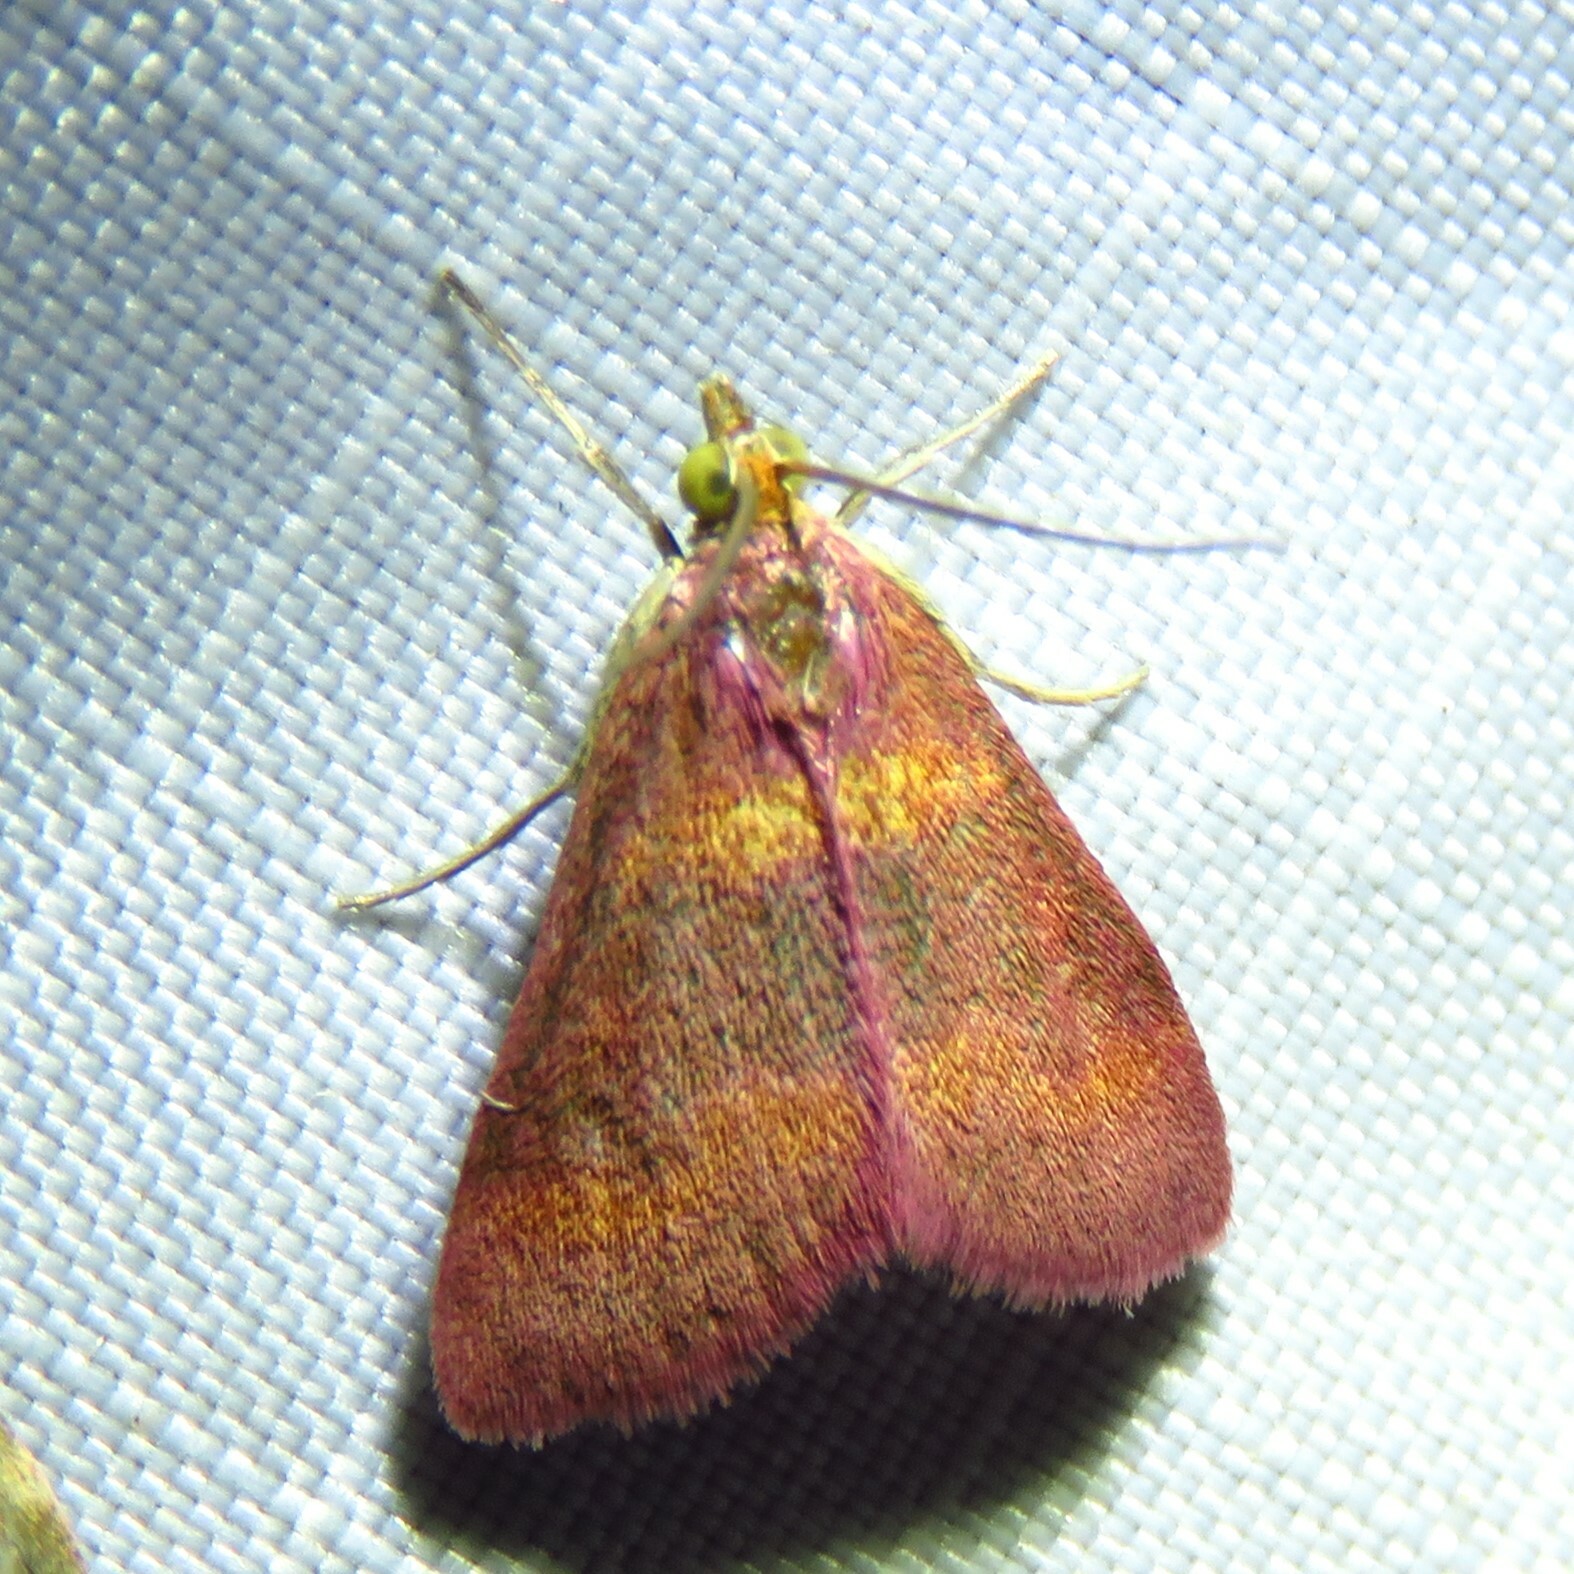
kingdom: Animalia
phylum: Arthropoda
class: Insecta
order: Lepidoptera
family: Crambidae
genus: Pyrausta
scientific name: Pyrausta tyralis
